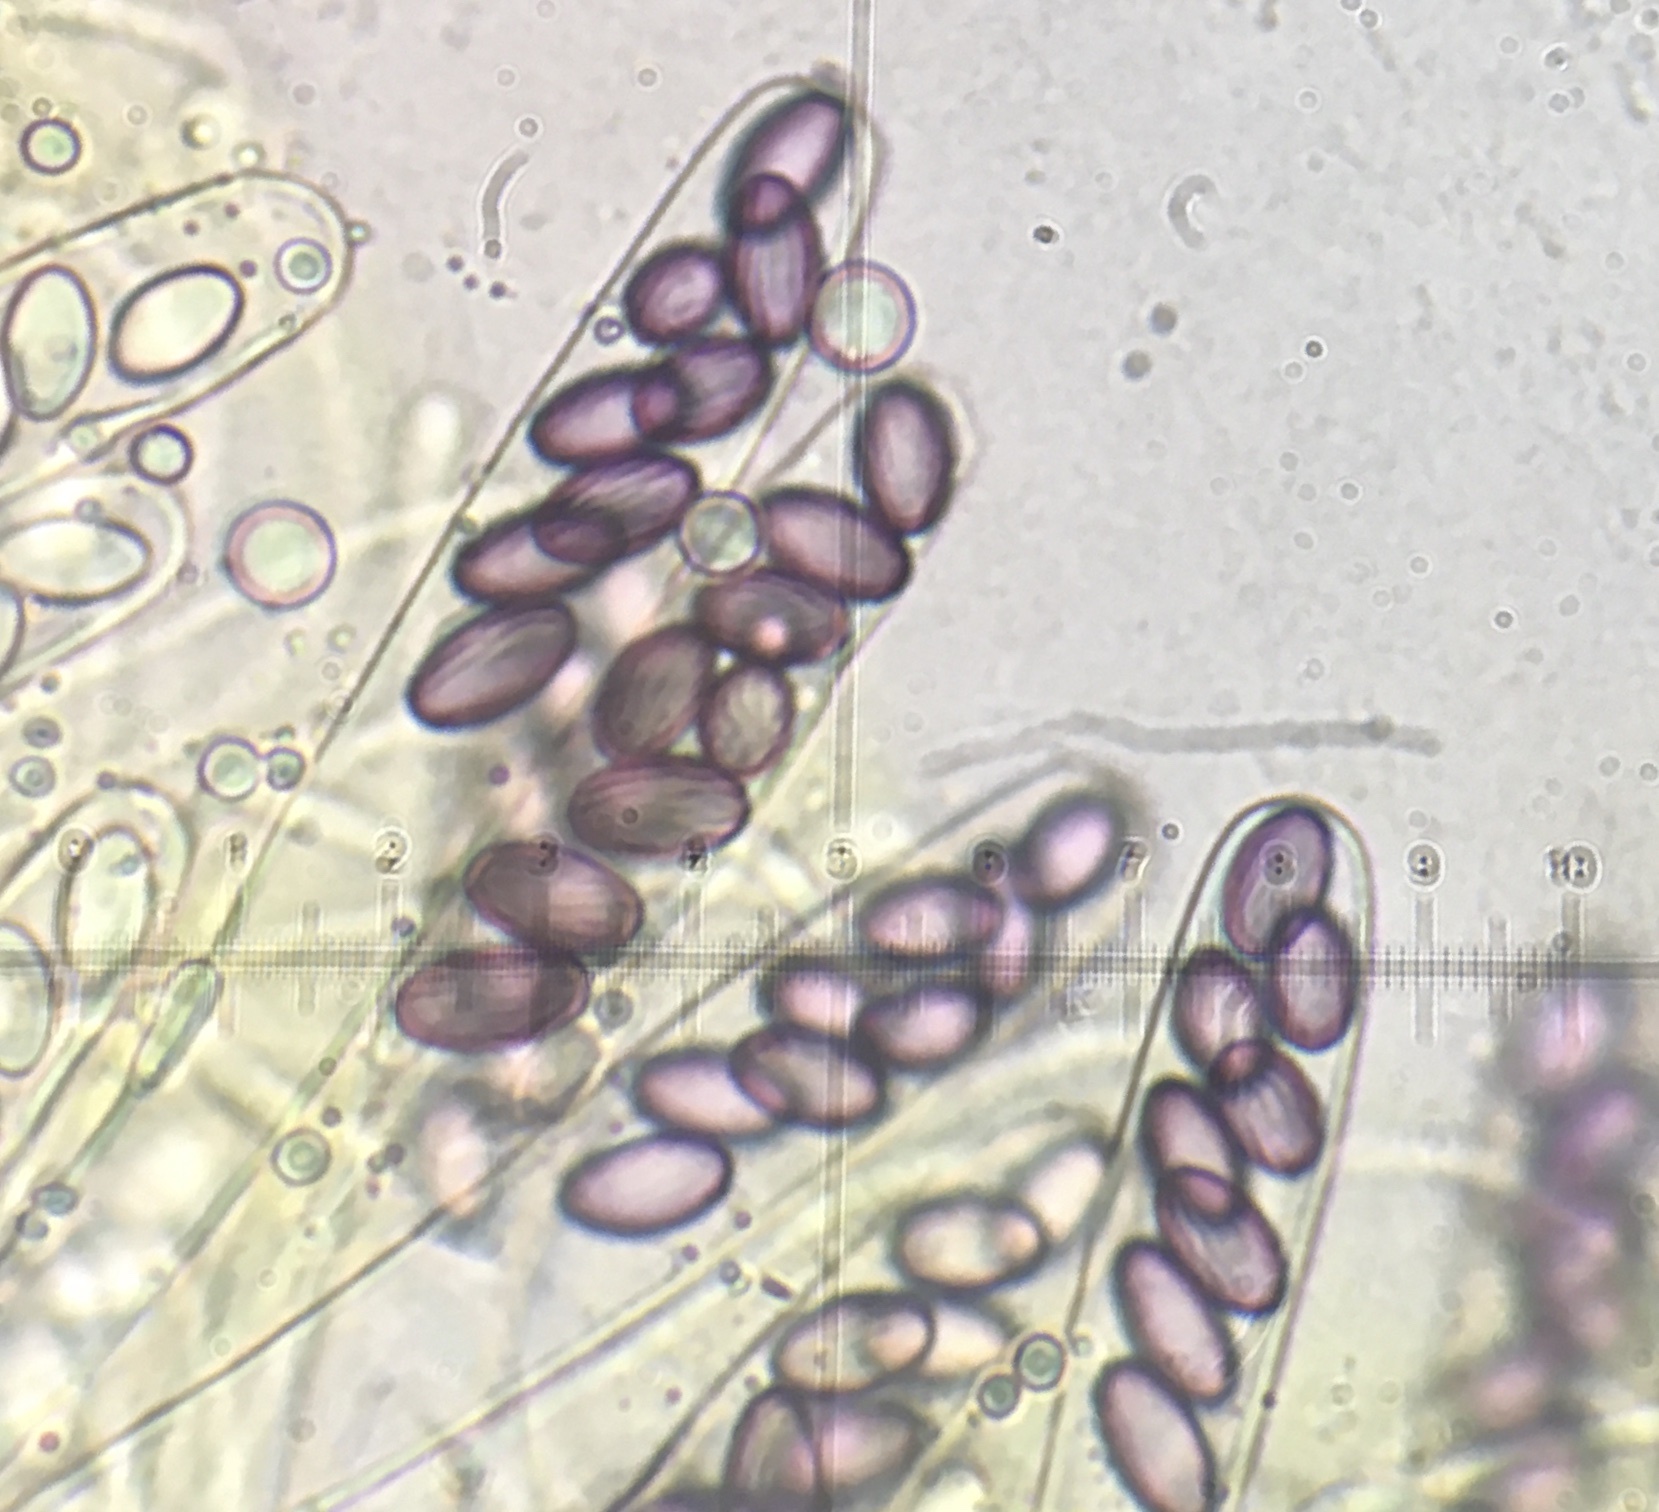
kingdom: Fungi
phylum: Ascomycota
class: Pezizomycetes
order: Pezizales
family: Ascobolaceae
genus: Ascobolus
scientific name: Ascobolus crenulatus
